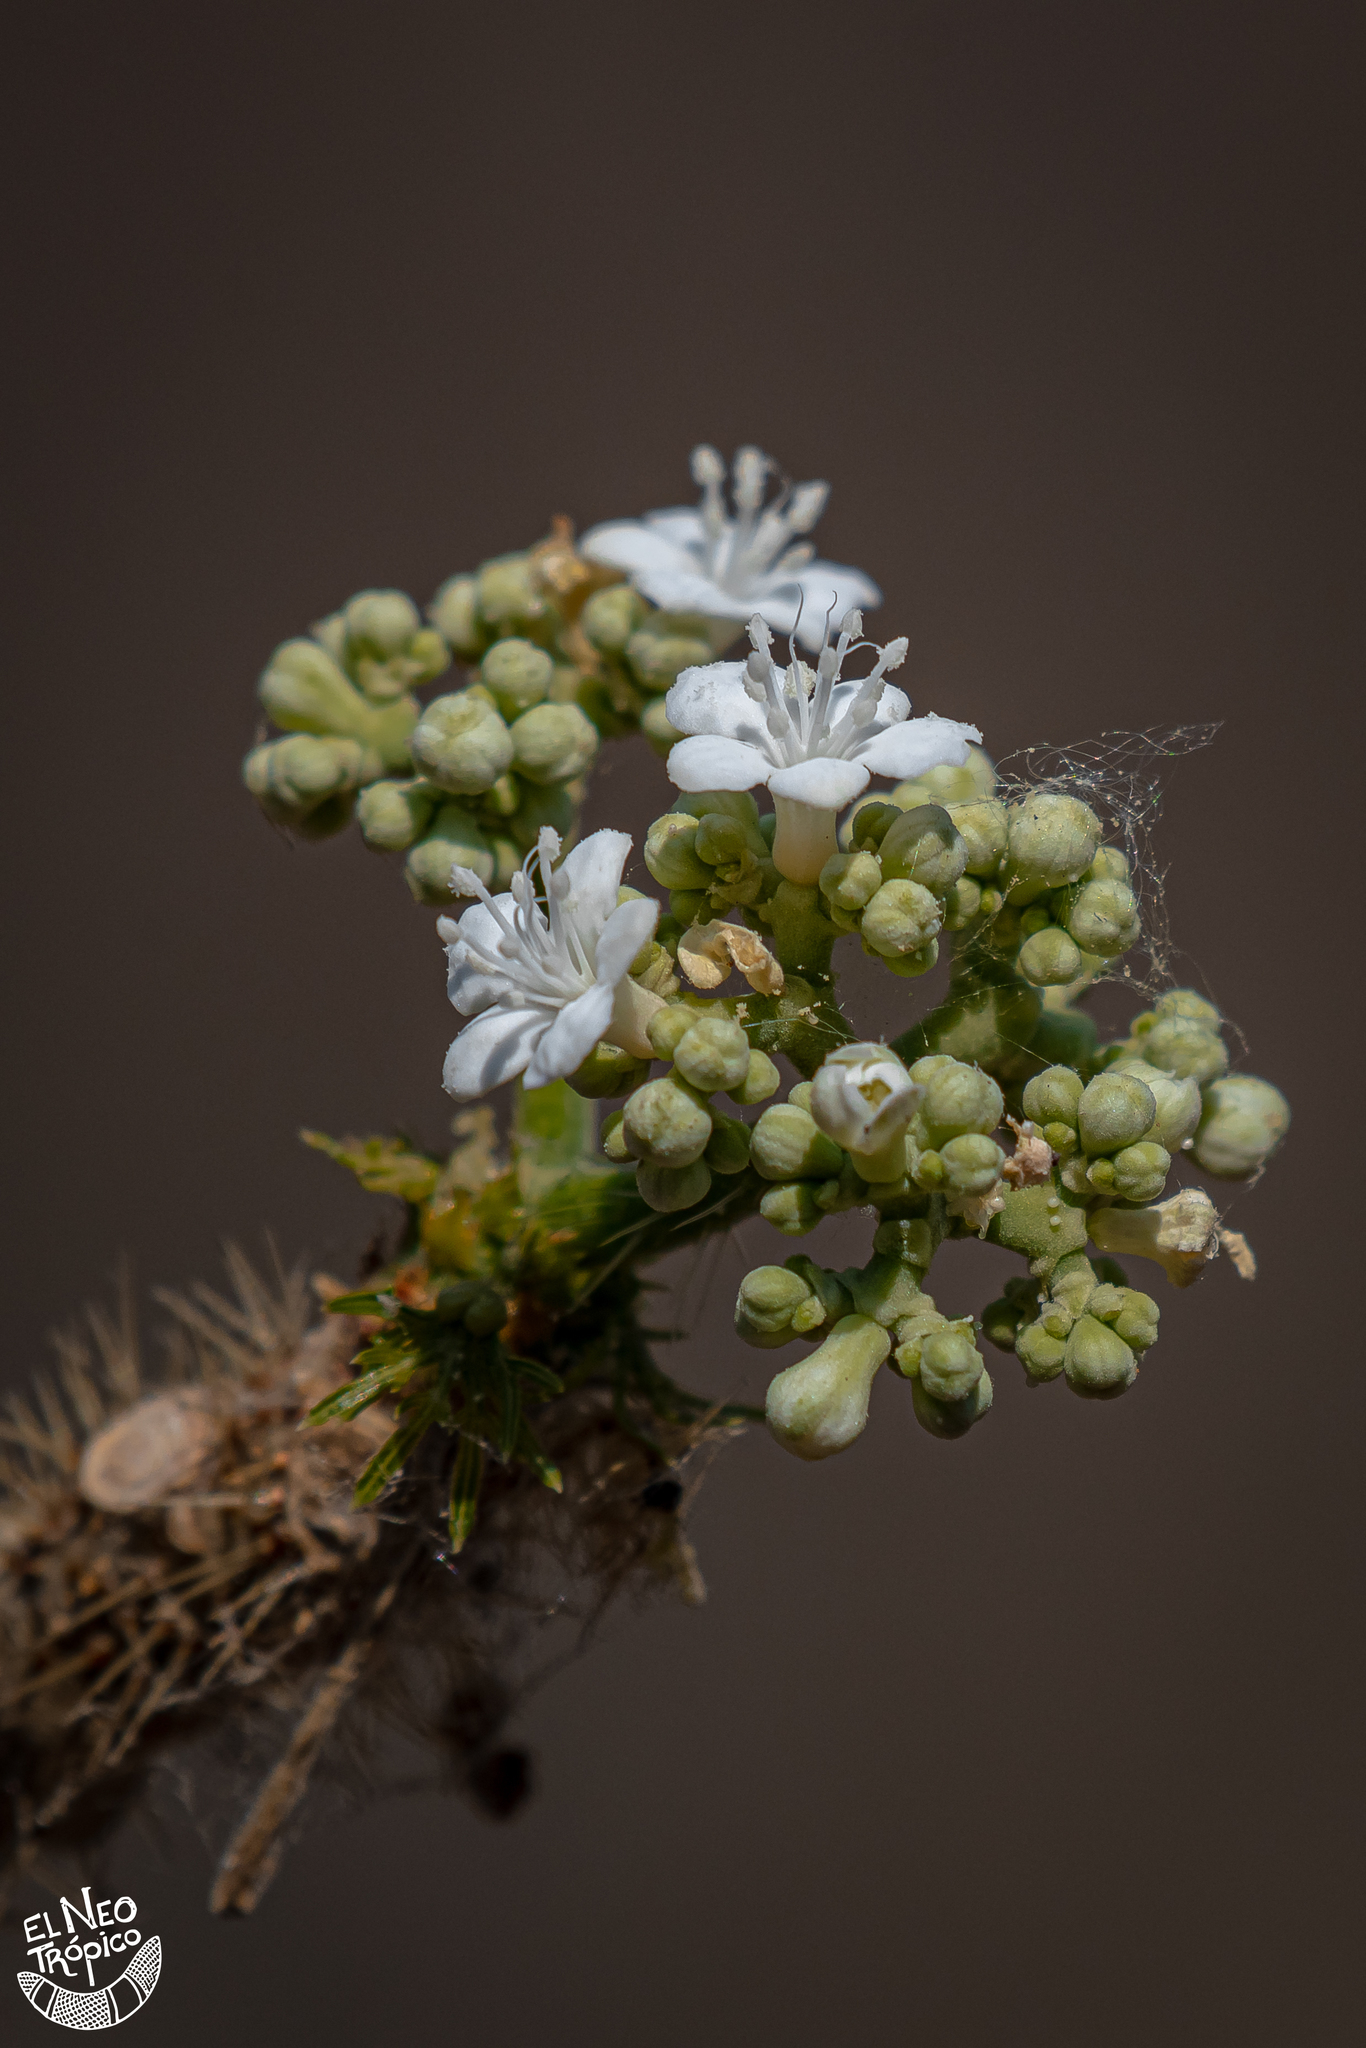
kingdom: Plantae
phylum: Tracheophyta
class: Magnoliopsida
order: Malpighiales
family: Euphorbiaceae
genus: Cnidoscolus
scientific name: Cnidoscolus aconitifolius
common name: Cabbage-star
